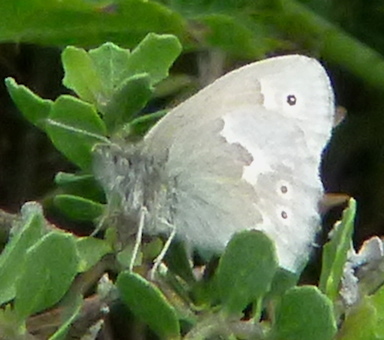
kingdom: Animalia
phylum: Arthropoda
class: Insecta
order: Lepidoptera
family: Nymphalidae
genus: Coenonympha
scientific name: Coenonympha california
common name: Common ringlet
